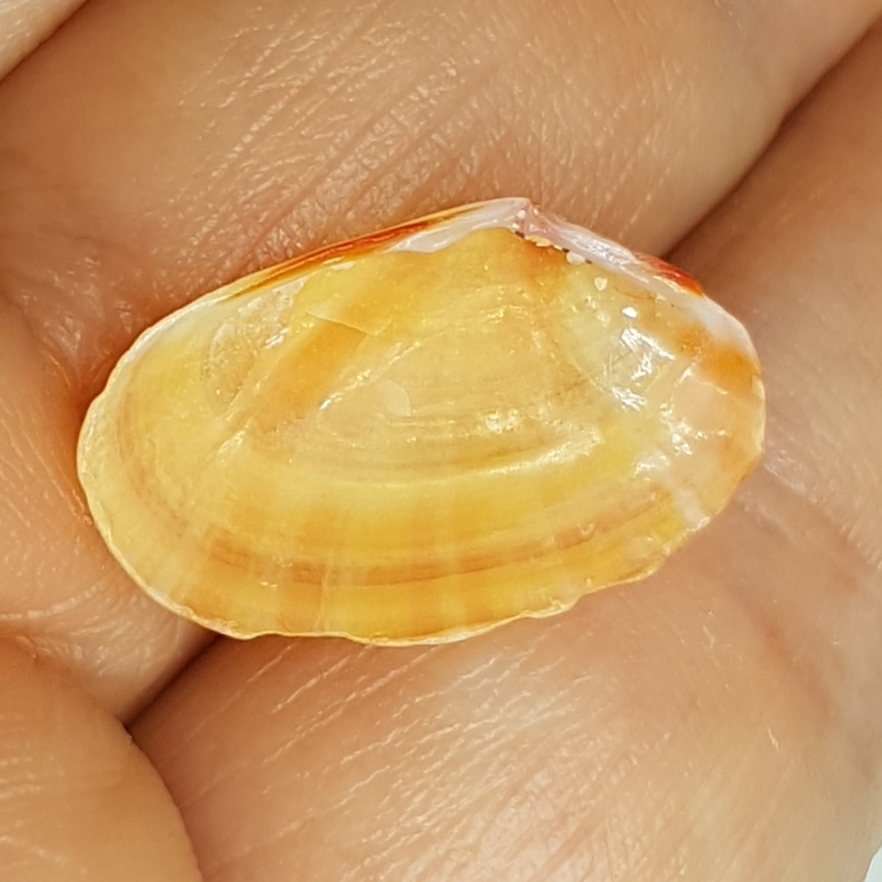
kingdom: Animalia
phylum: Mollusca
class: Bivalvia
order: Cardiida
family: Tellinidae
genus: Moerella
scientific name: Moerella donacina
